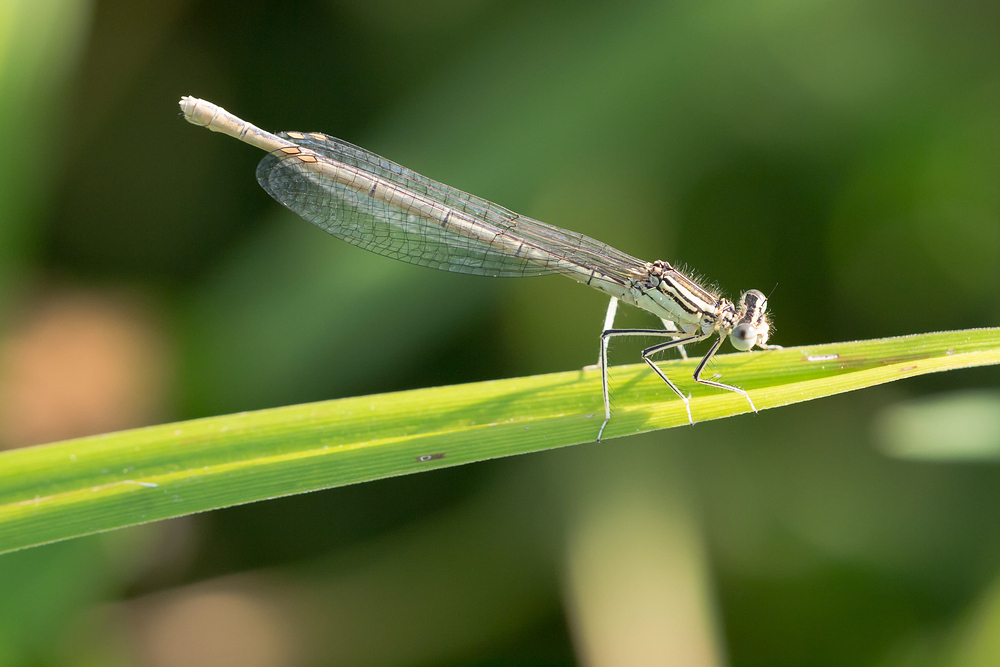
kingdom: Animalia
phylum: Arthropoda
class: Insecta
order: Odonata
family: Platycnemididae
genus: Platycnemis
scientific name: Platycnemis pennipes
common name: White-legged damselfly
